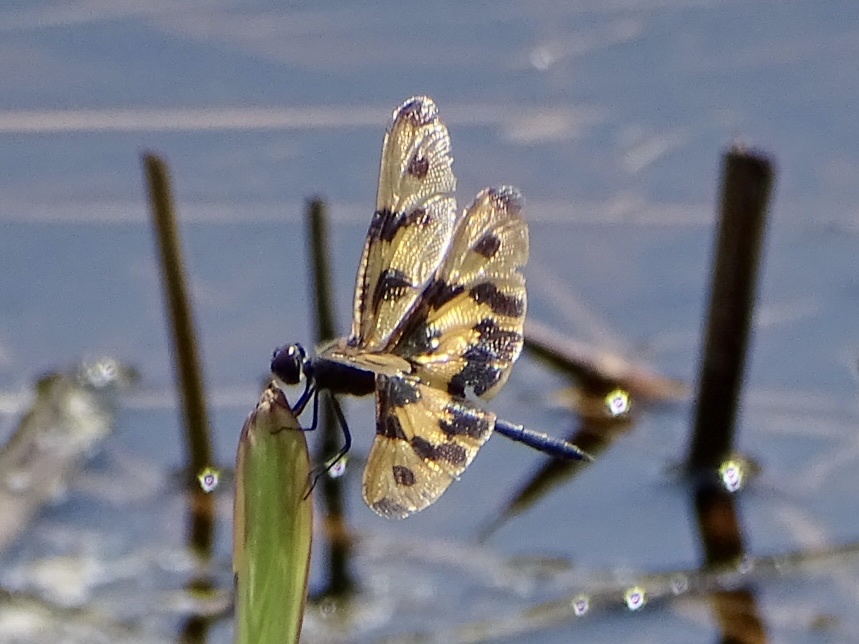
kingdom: Animalia
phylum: Arthropoda
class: Insecta
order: Odonata
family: Libellulidae
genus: Rhyothemis
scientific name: Rhyothemis variegata
